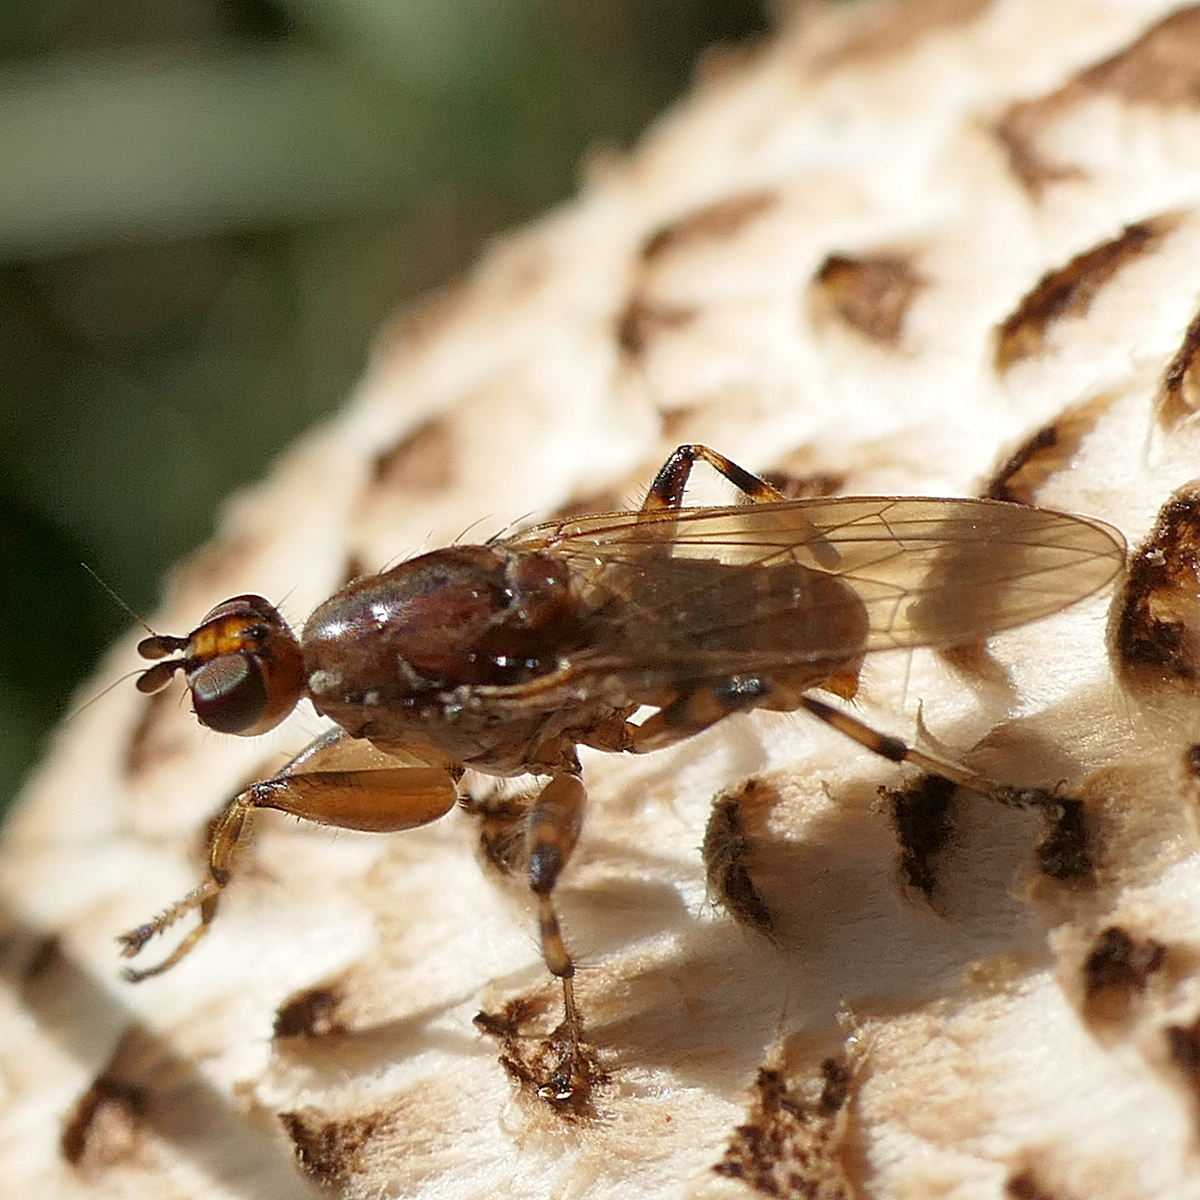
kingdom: Animalia
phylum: Arthropoda
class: Insecta
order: Diptera
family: Heleomyzidae
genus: Tapeigaster
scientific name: Tapeigaster annulipes
